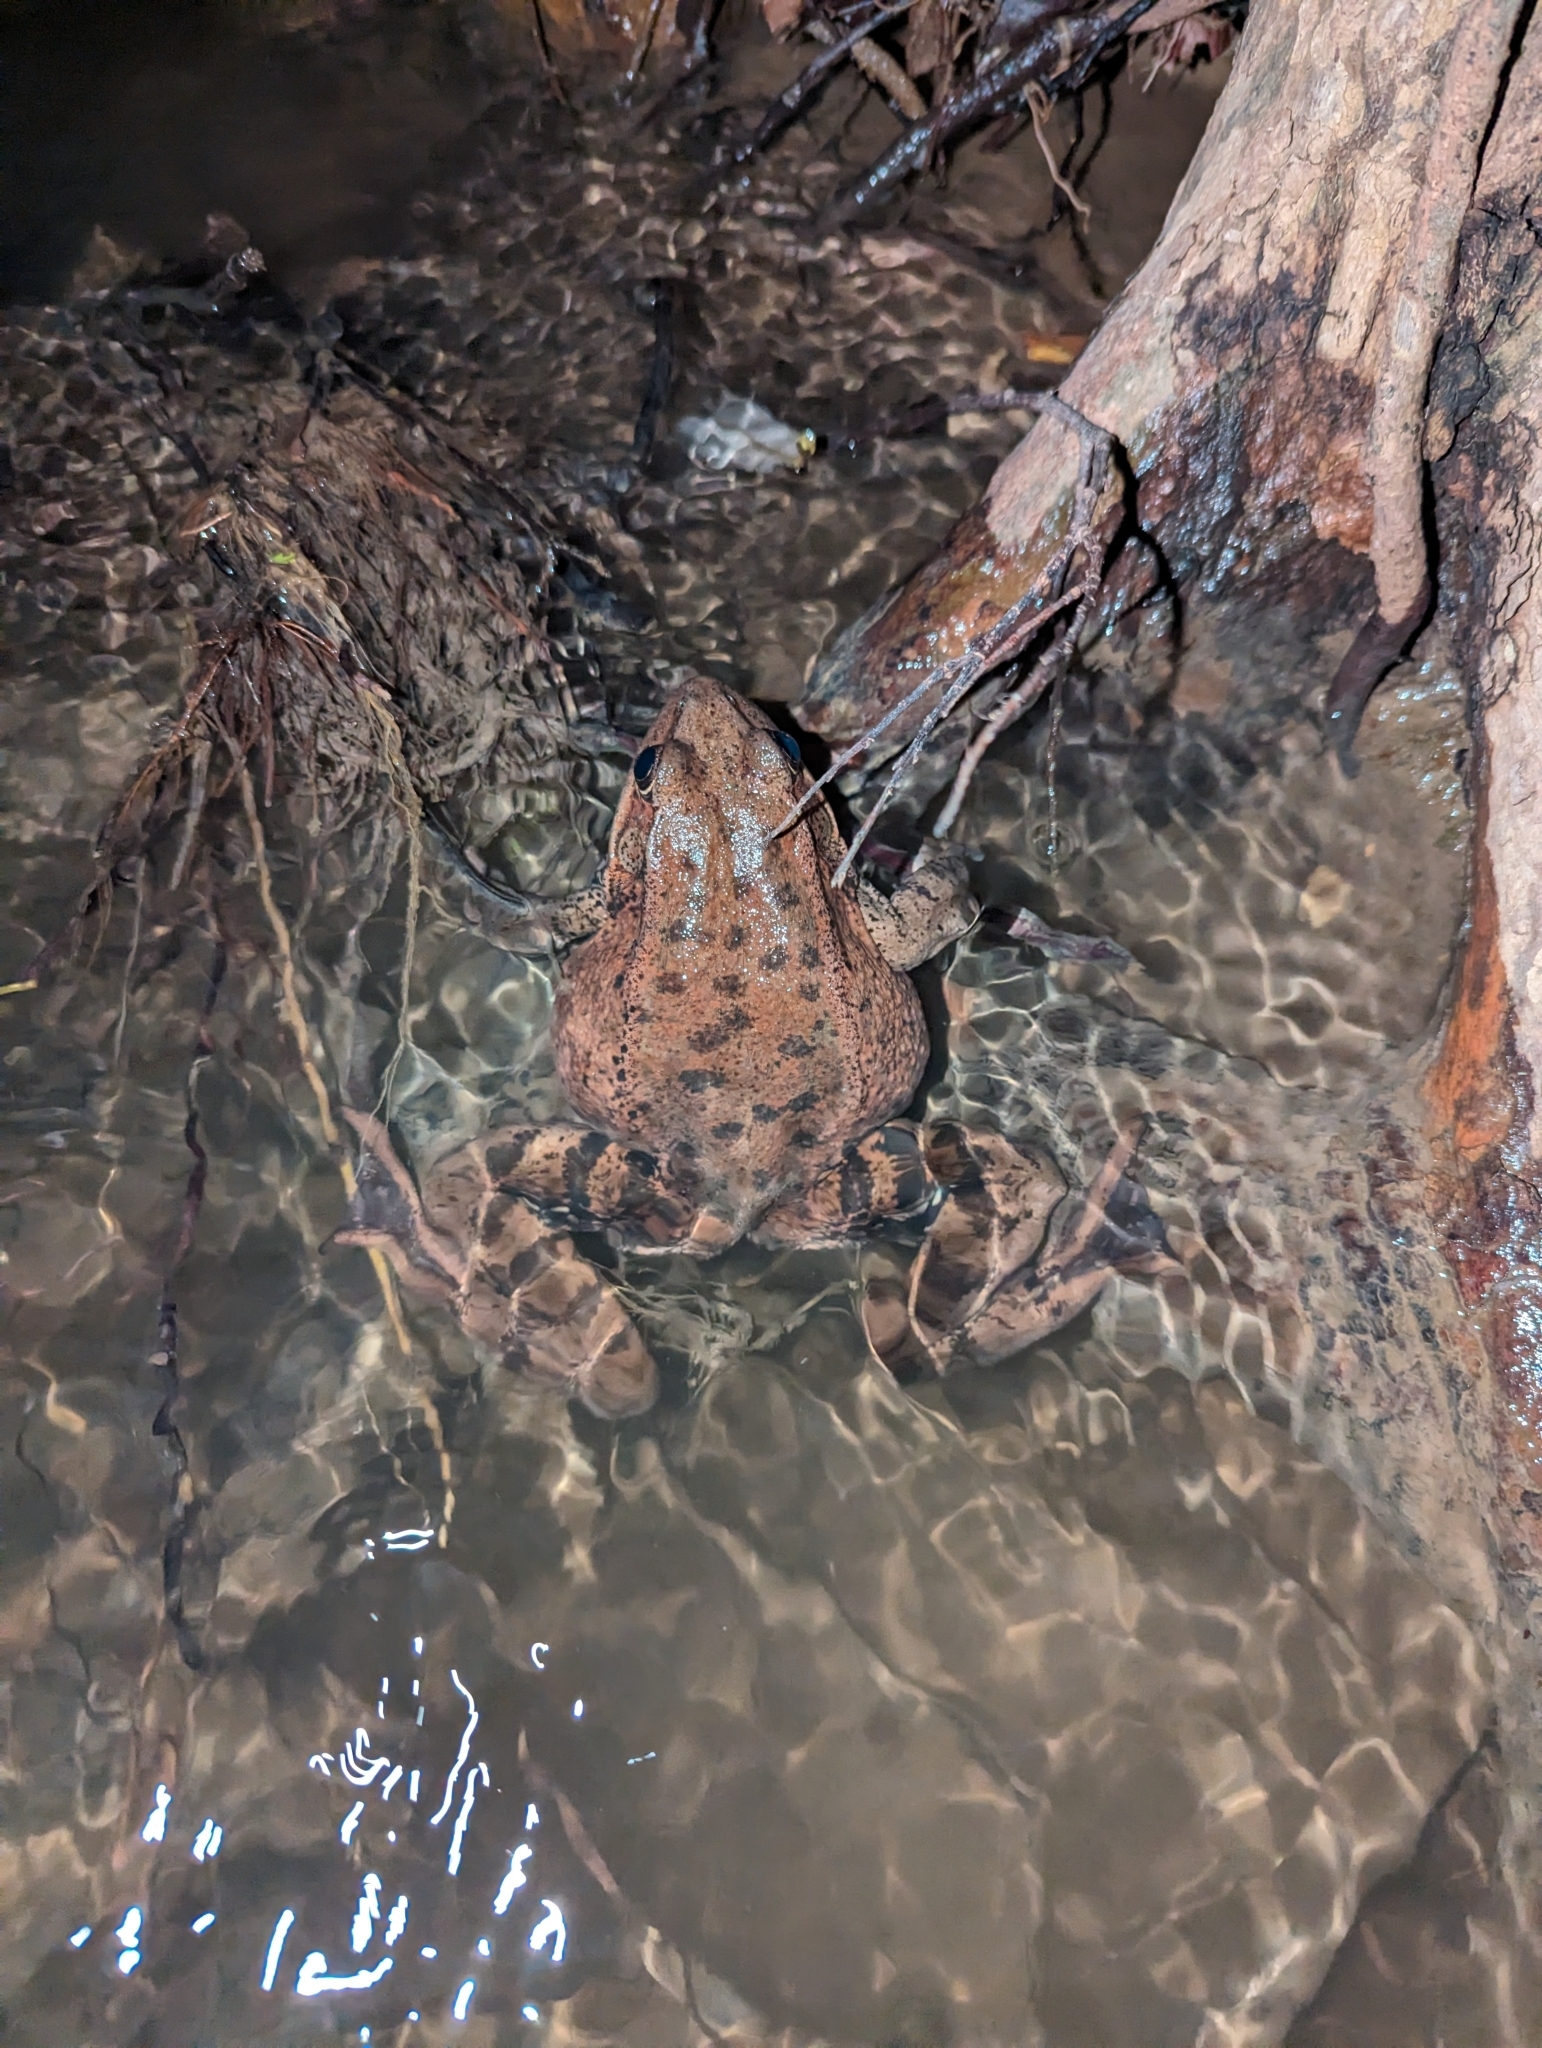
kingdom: Animalia
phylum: Chordata
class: Amphibia
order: Anura
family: Ranidae
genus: Rana
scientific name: Rana draytonii
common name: California red-legged frog
